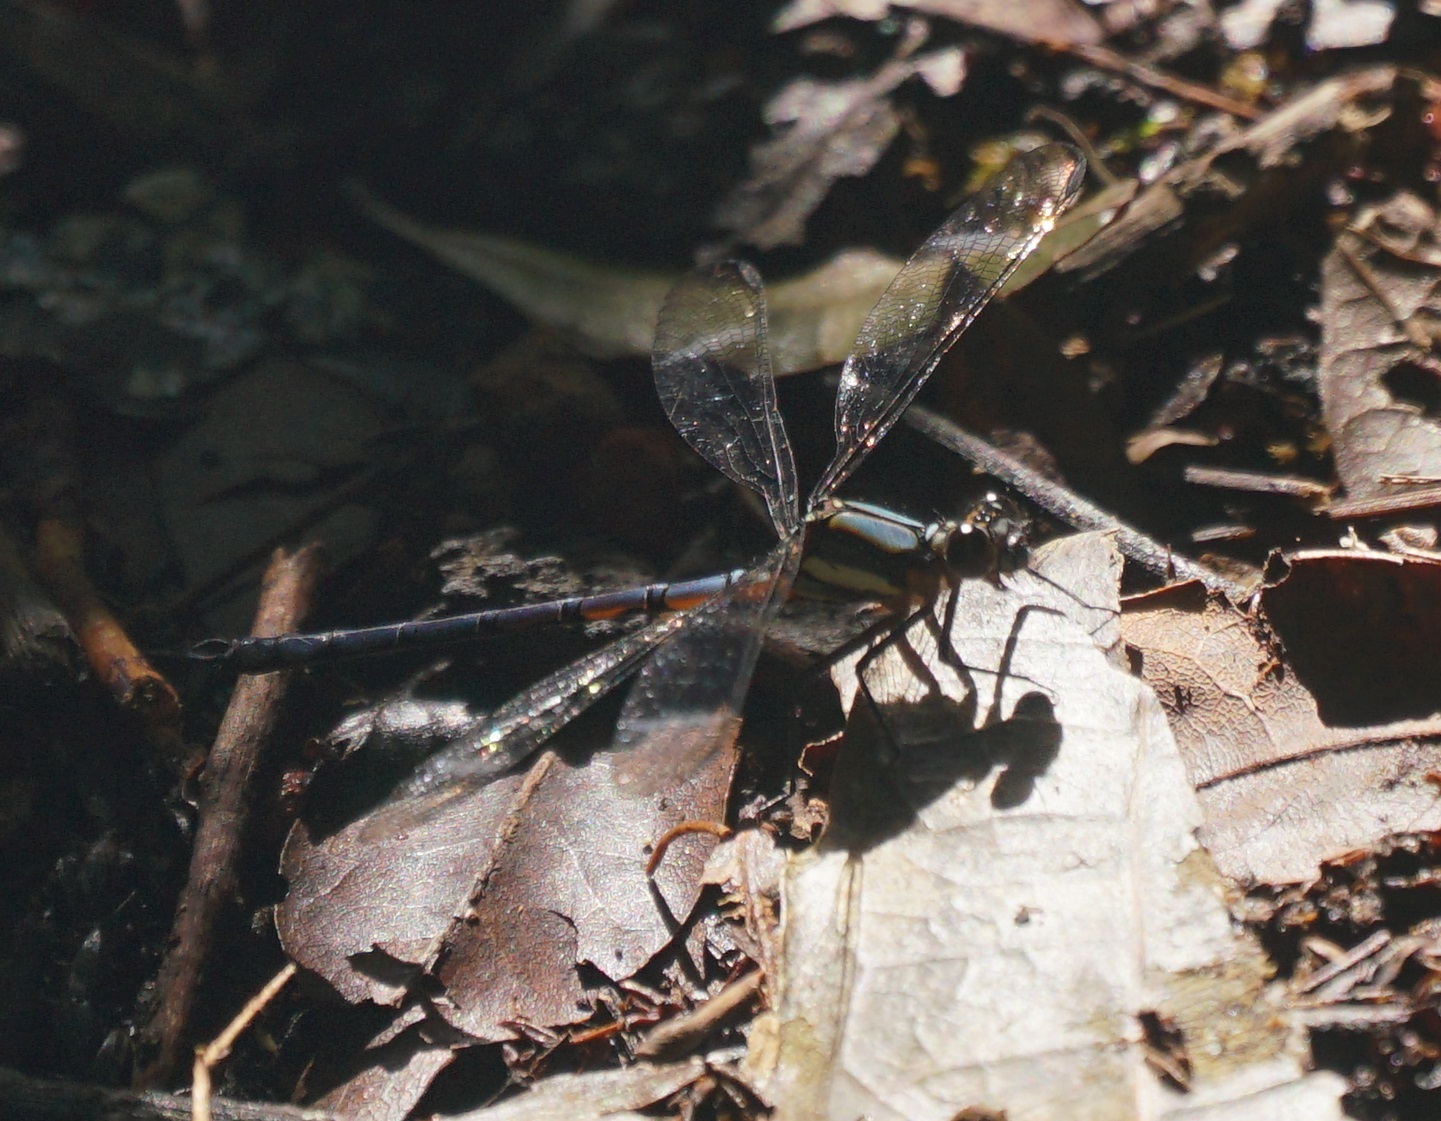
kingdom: Animalia
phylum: Arthropoda
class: Insecta
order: Odonata
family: Lestoideidae
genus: Diphlebia
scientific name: Diphlebia lestoides
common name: Whitewater rockmaster
